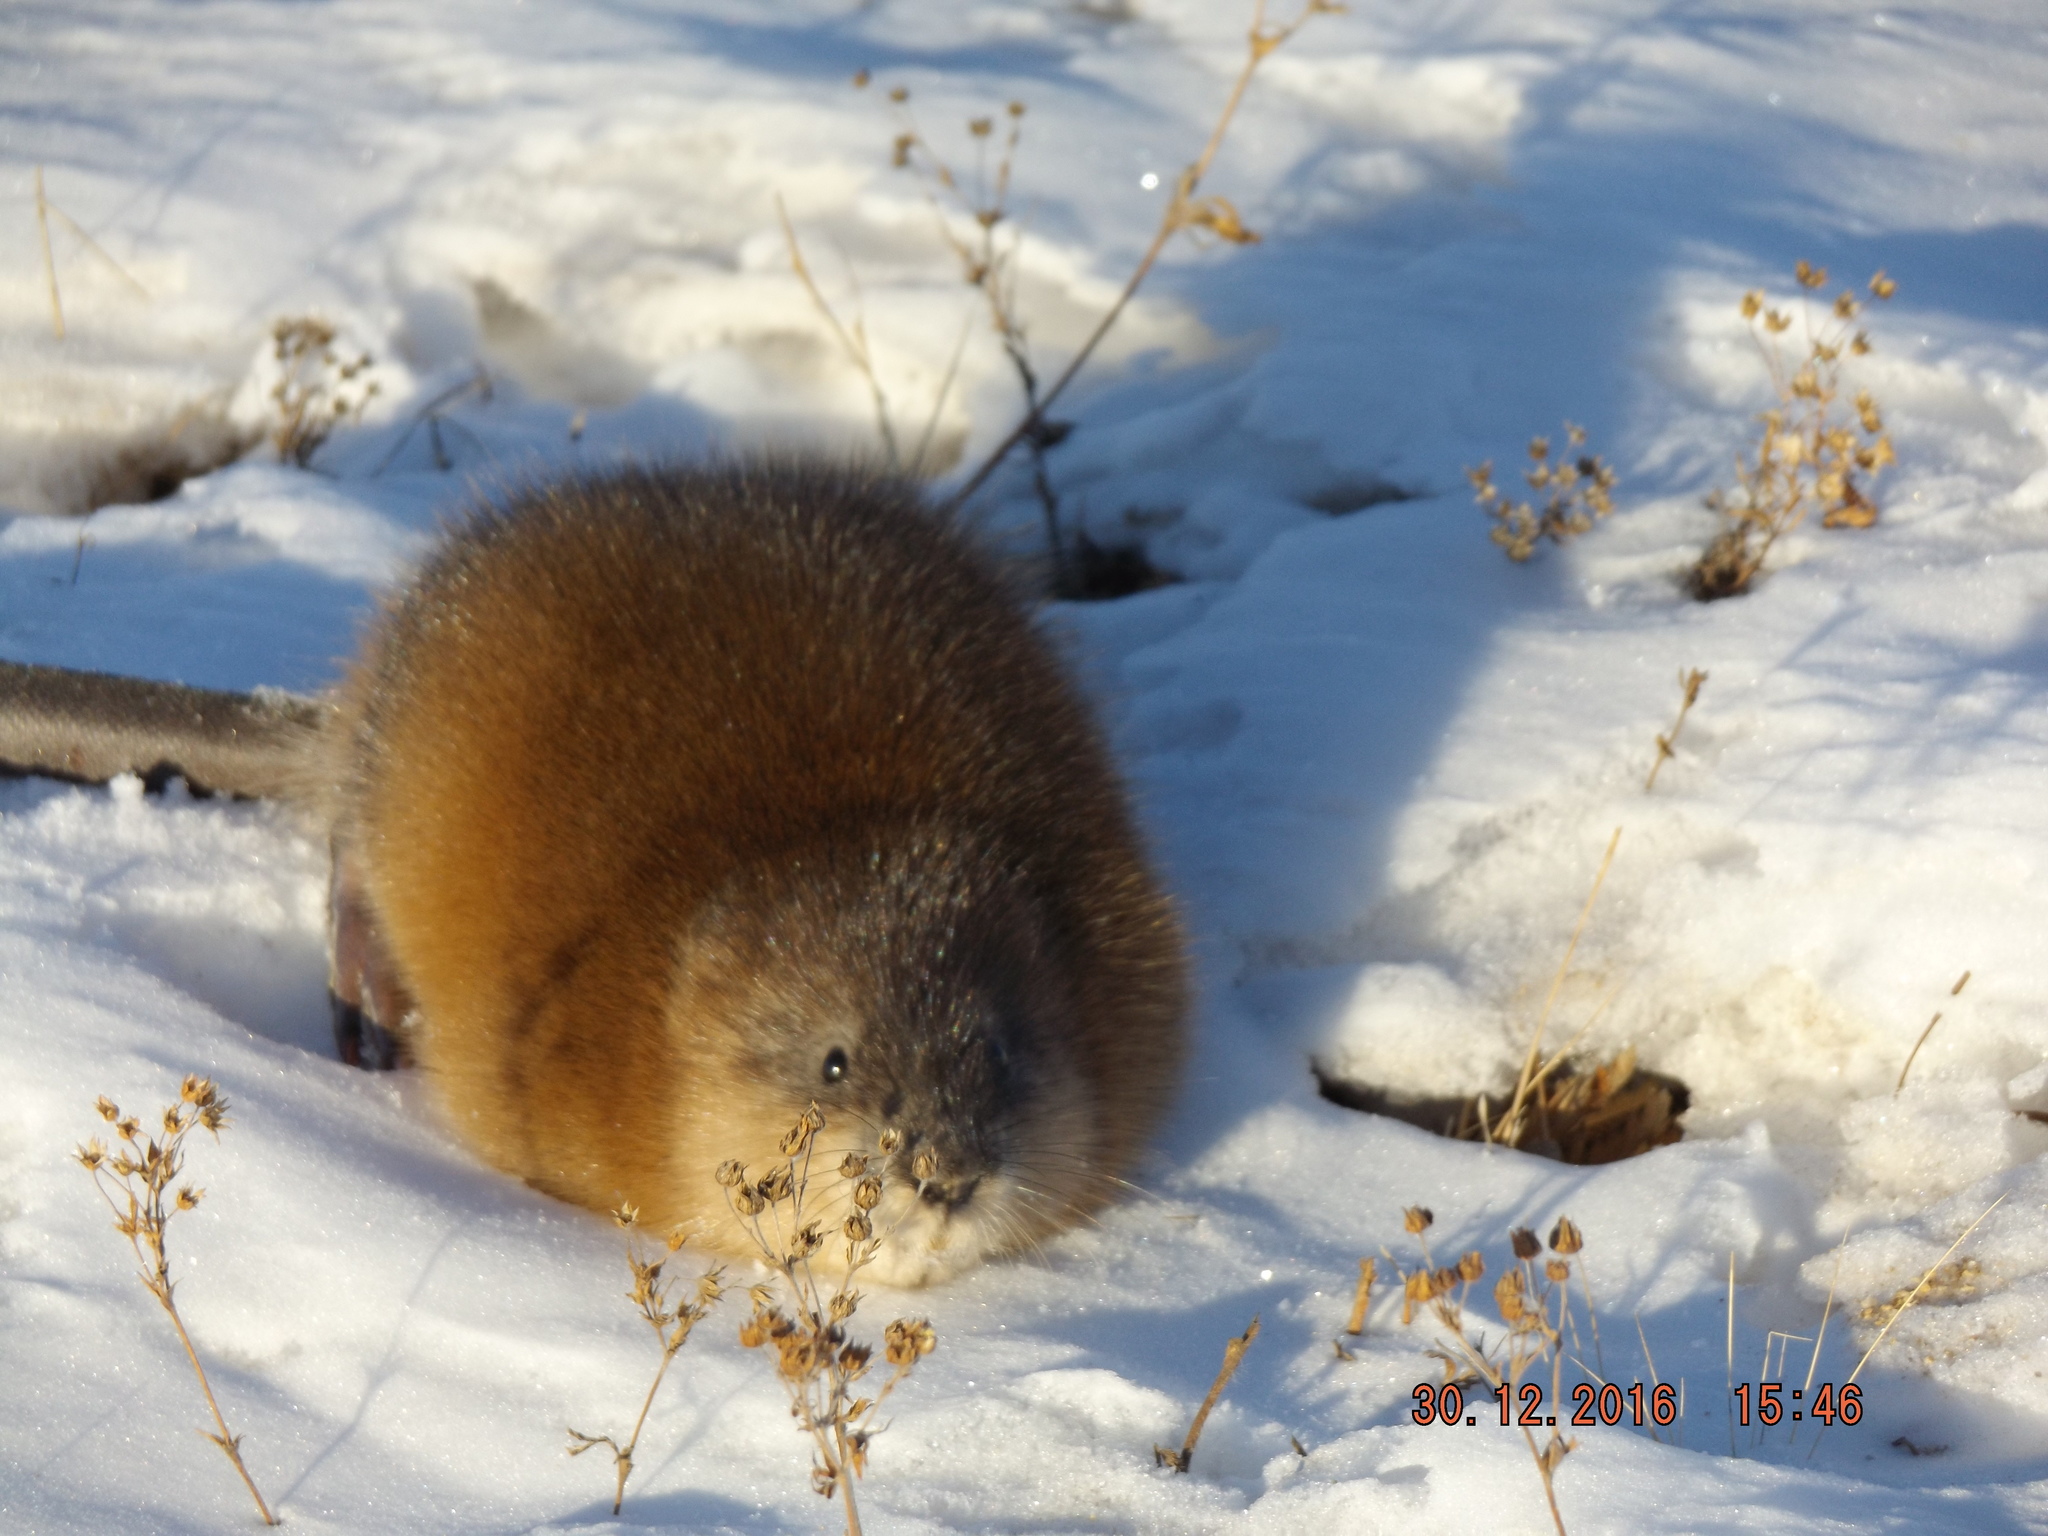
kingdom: Animalia
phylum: Chordata
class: Mammalia
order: Rodentia
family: Cricetidae
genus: Ondatra
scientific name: Ondatra zibethicus
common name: Muskrat
